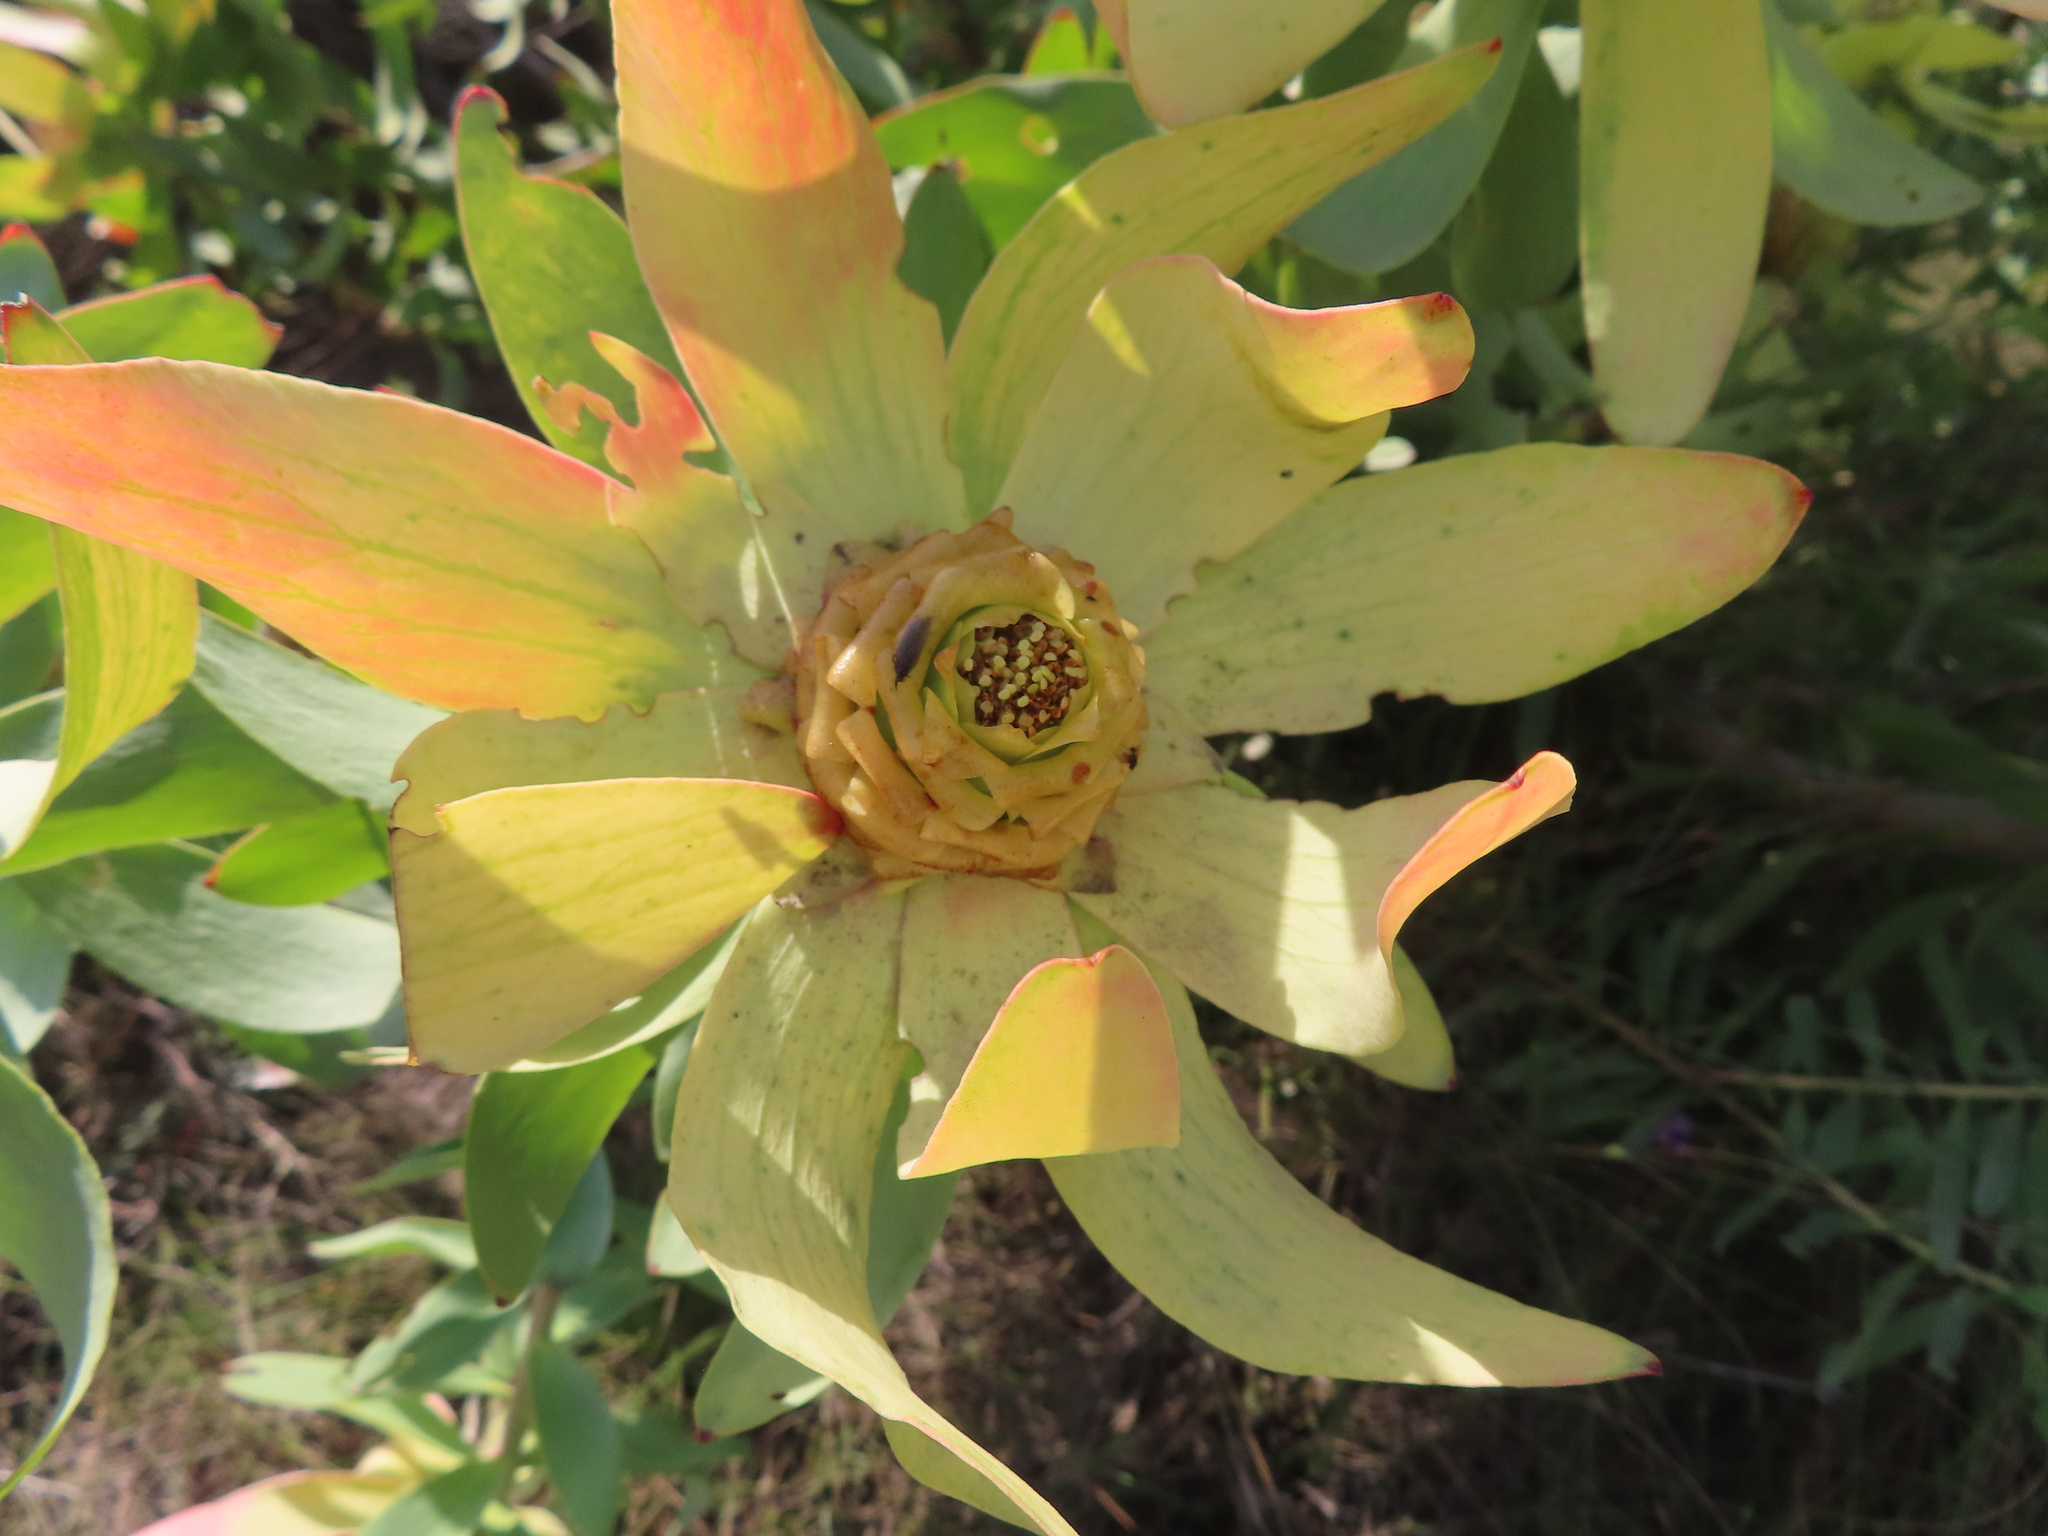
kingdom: Plantae
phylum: Tracheophyta
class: Magnoliopsida
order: Proteales
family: Proteaceae
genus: Leucadendron
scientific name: Leucadendron tinctum
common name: Spicy conebush
